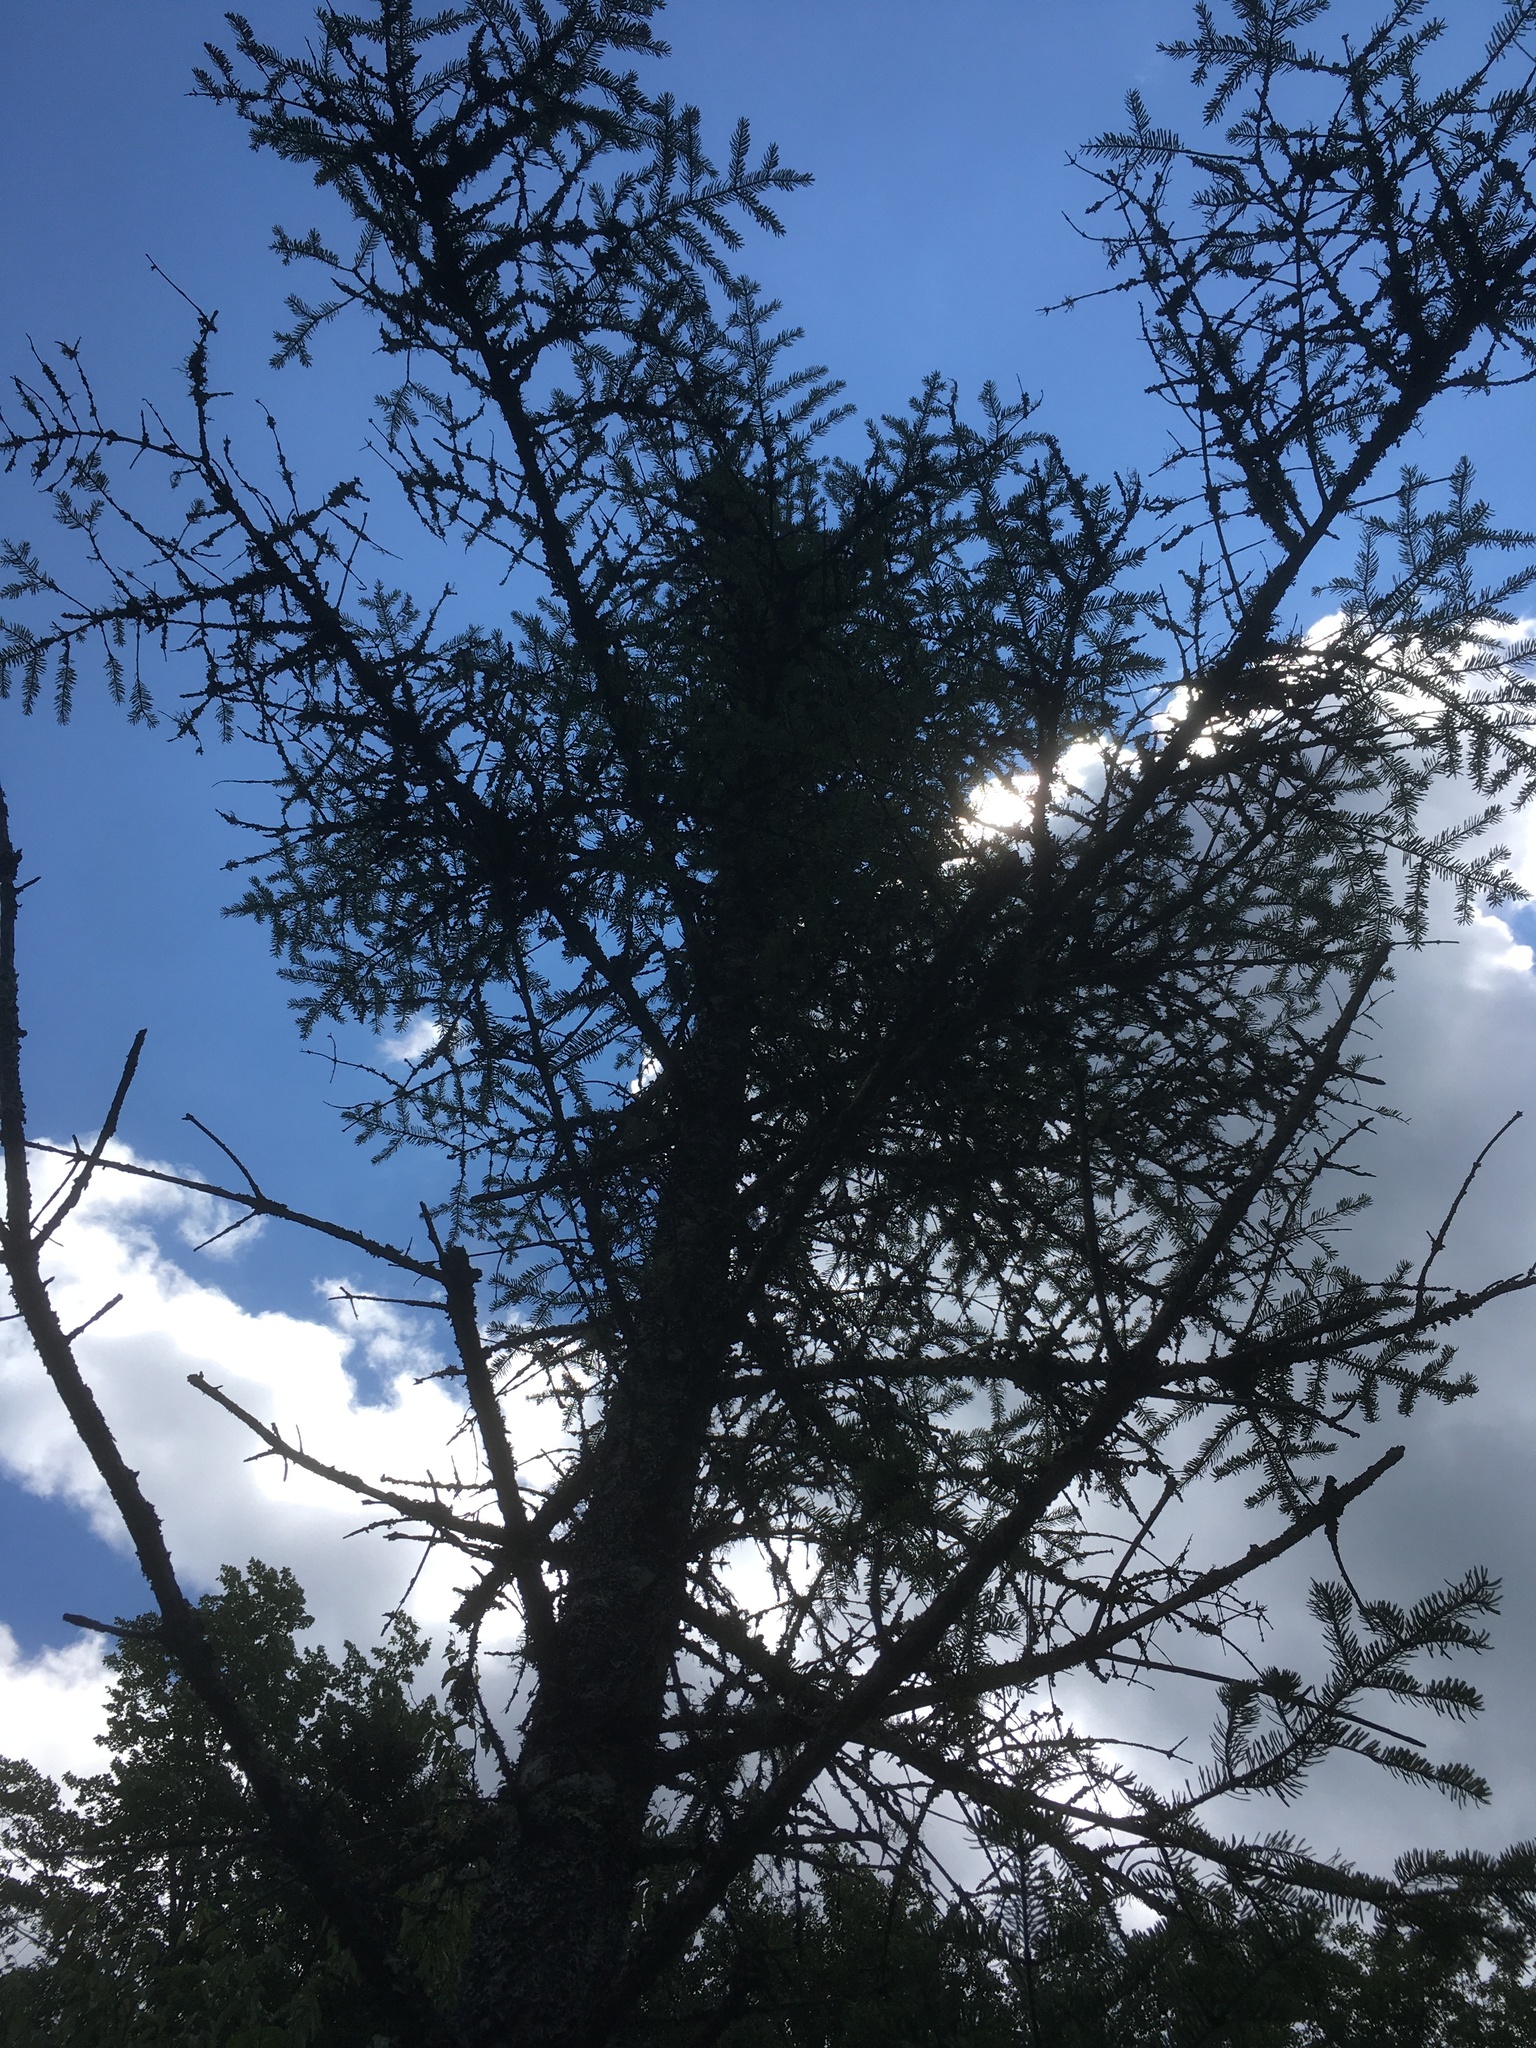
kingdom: Plantae
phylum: Tracheophyta
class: Pinopsida
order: Pinales
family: Pinaceae
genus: Abies
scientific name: Abies balsamea
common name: Balsam fir
